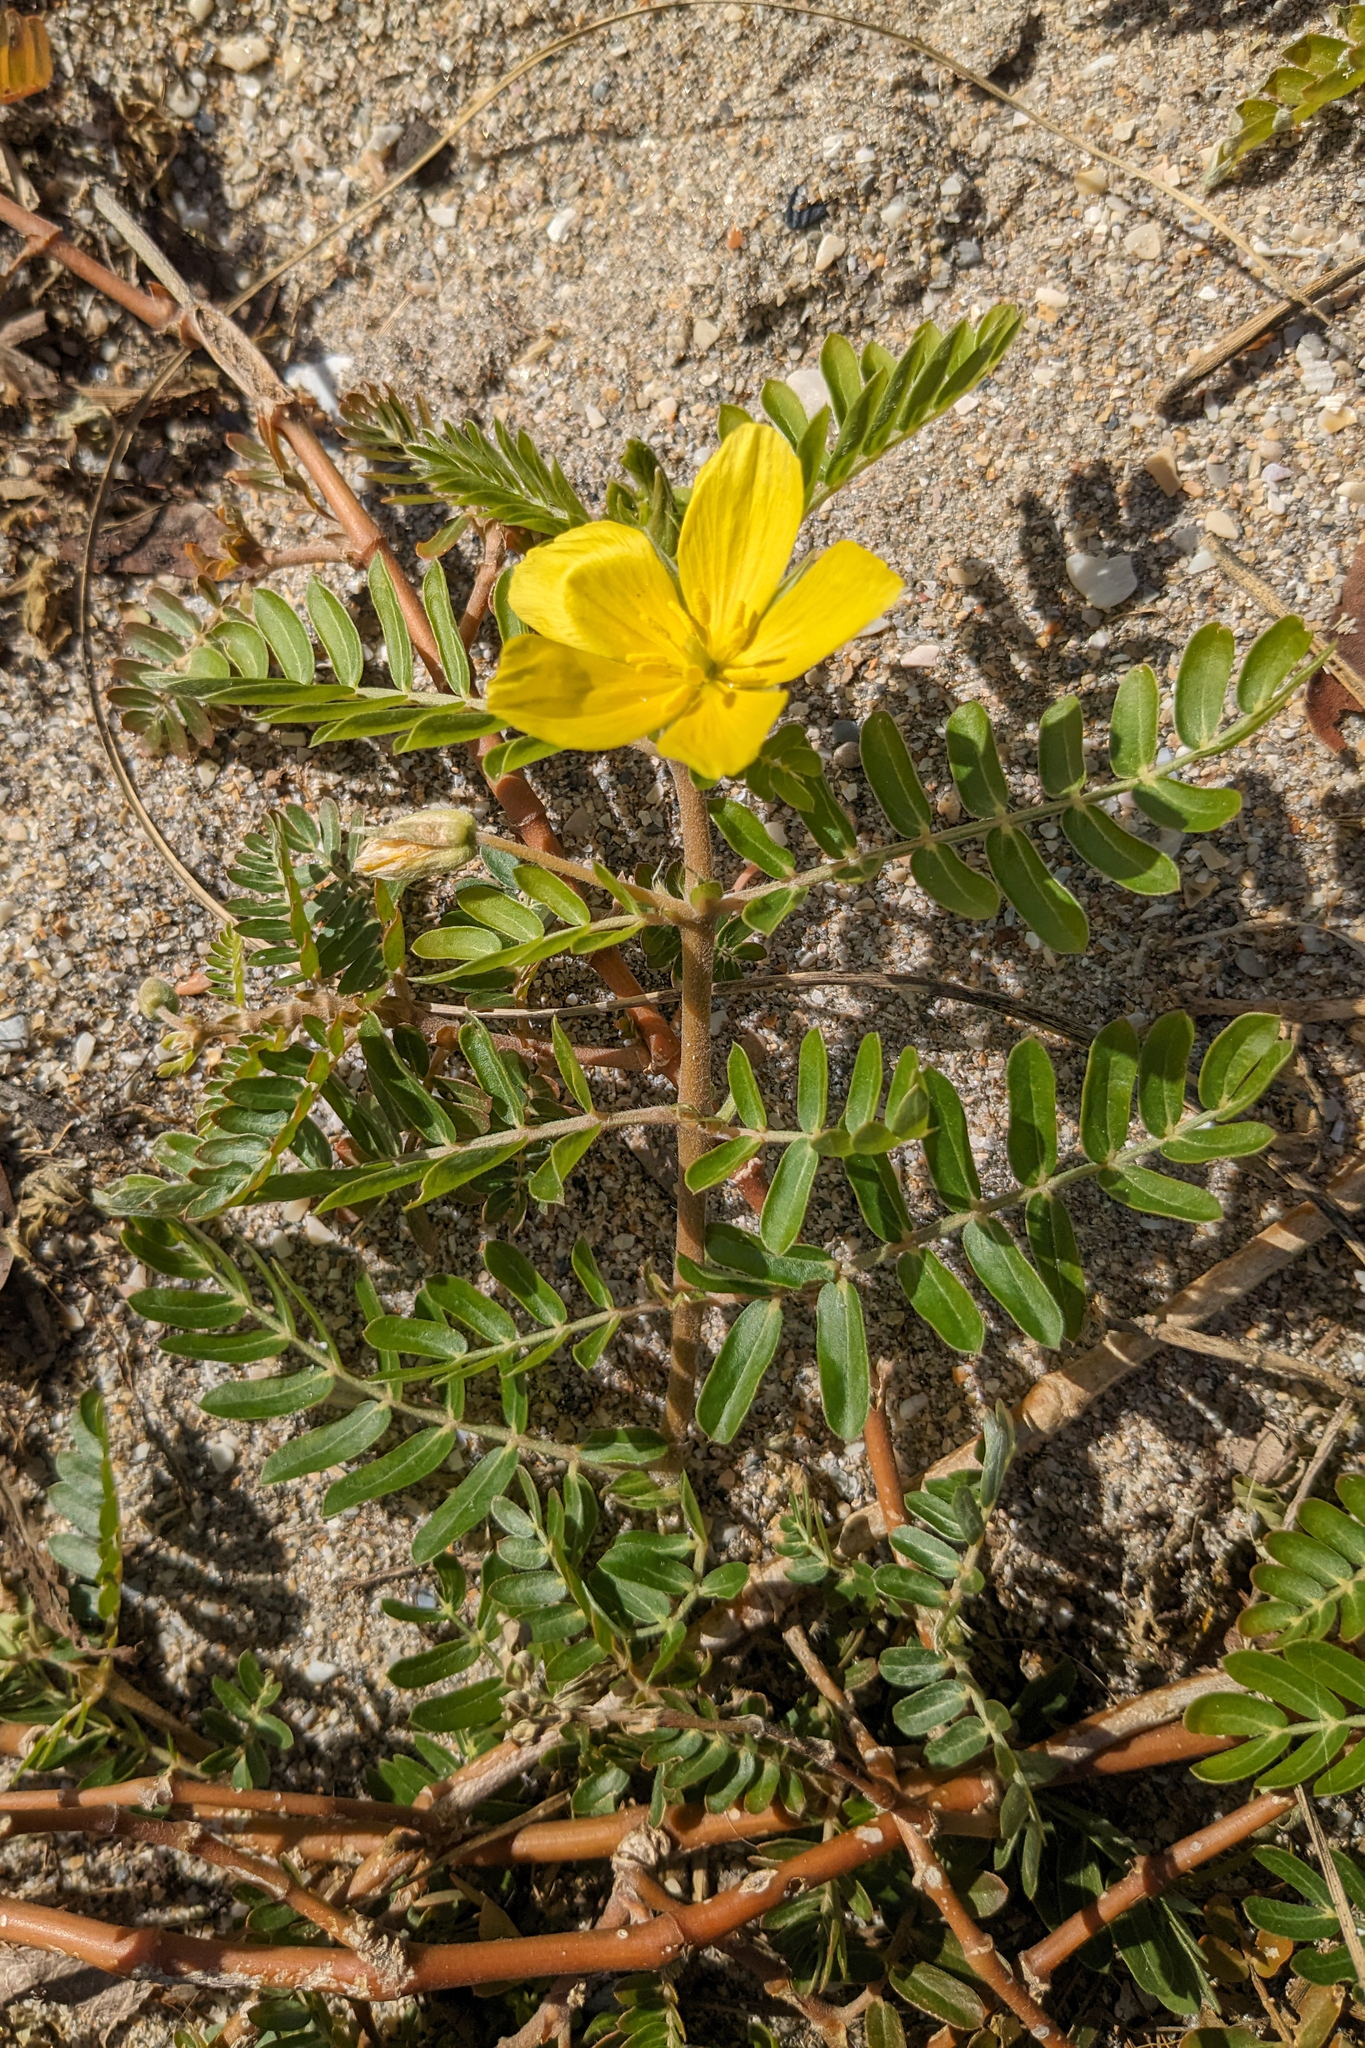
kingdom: Plantae
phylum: Tracheophyta
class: Magnoliopsida
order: Zygophyllales
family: Zygophyllaceae
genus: Tribulus
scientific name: Tribulus cistoides
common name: Jamaican feverplant
